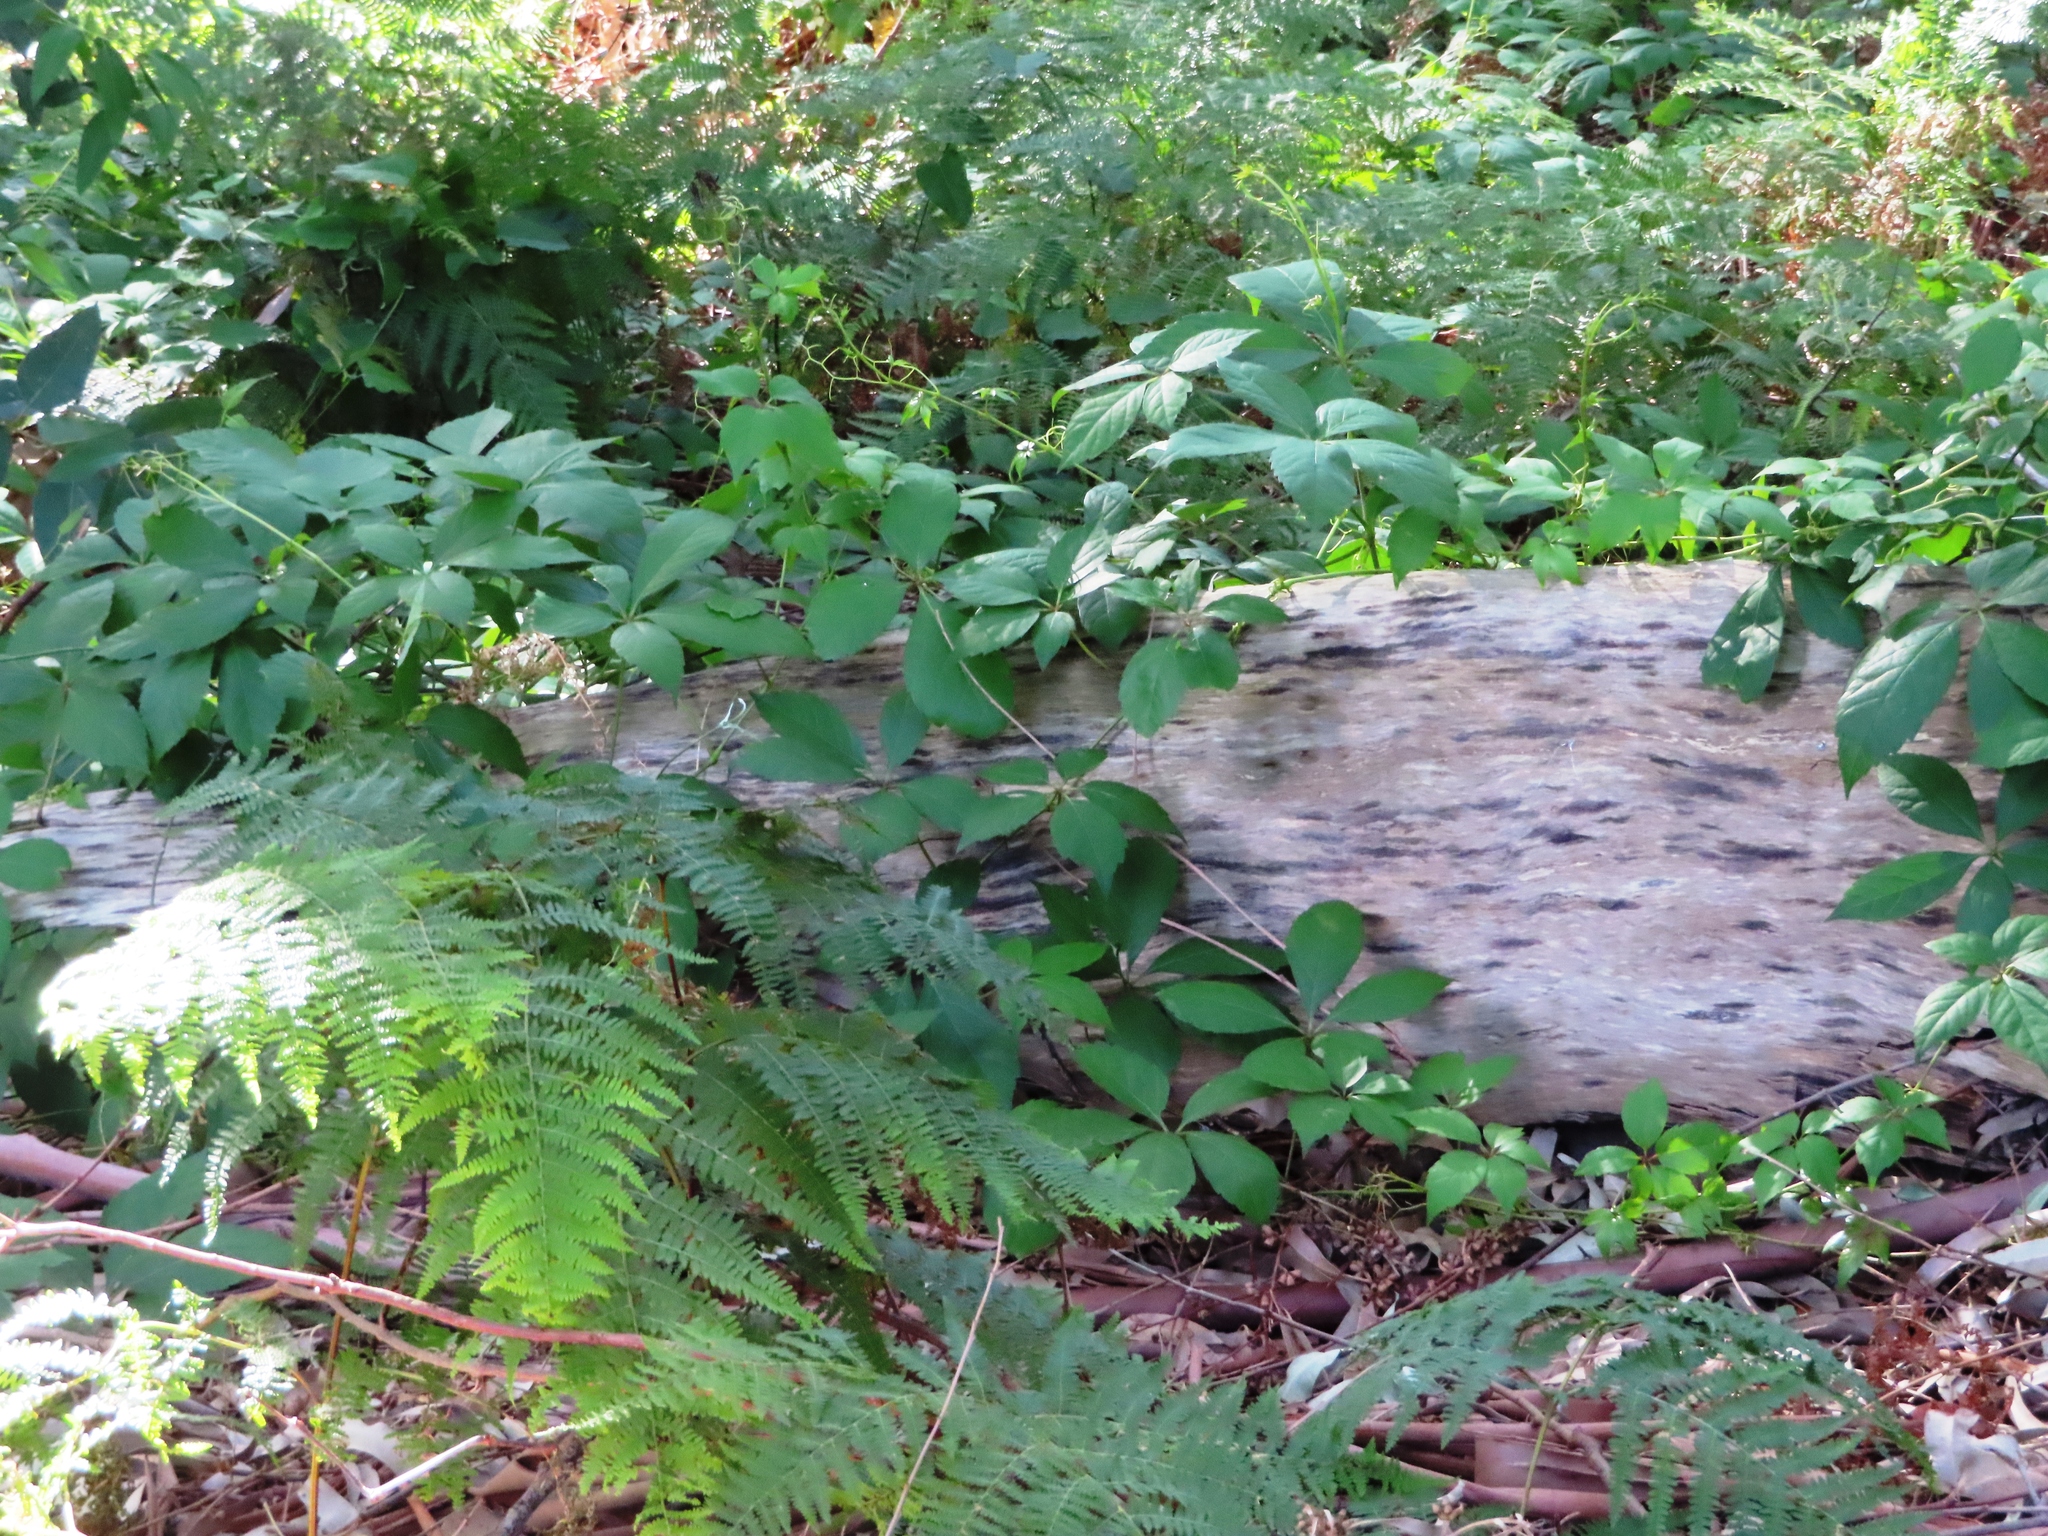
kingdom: Plantae
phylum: Tracheophyta
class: Magnoliopsida
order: Vitales
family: Vitaceae
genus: Parthenocissus
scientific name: Parthenocissus quinquefolia
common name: Virginia-creeper
